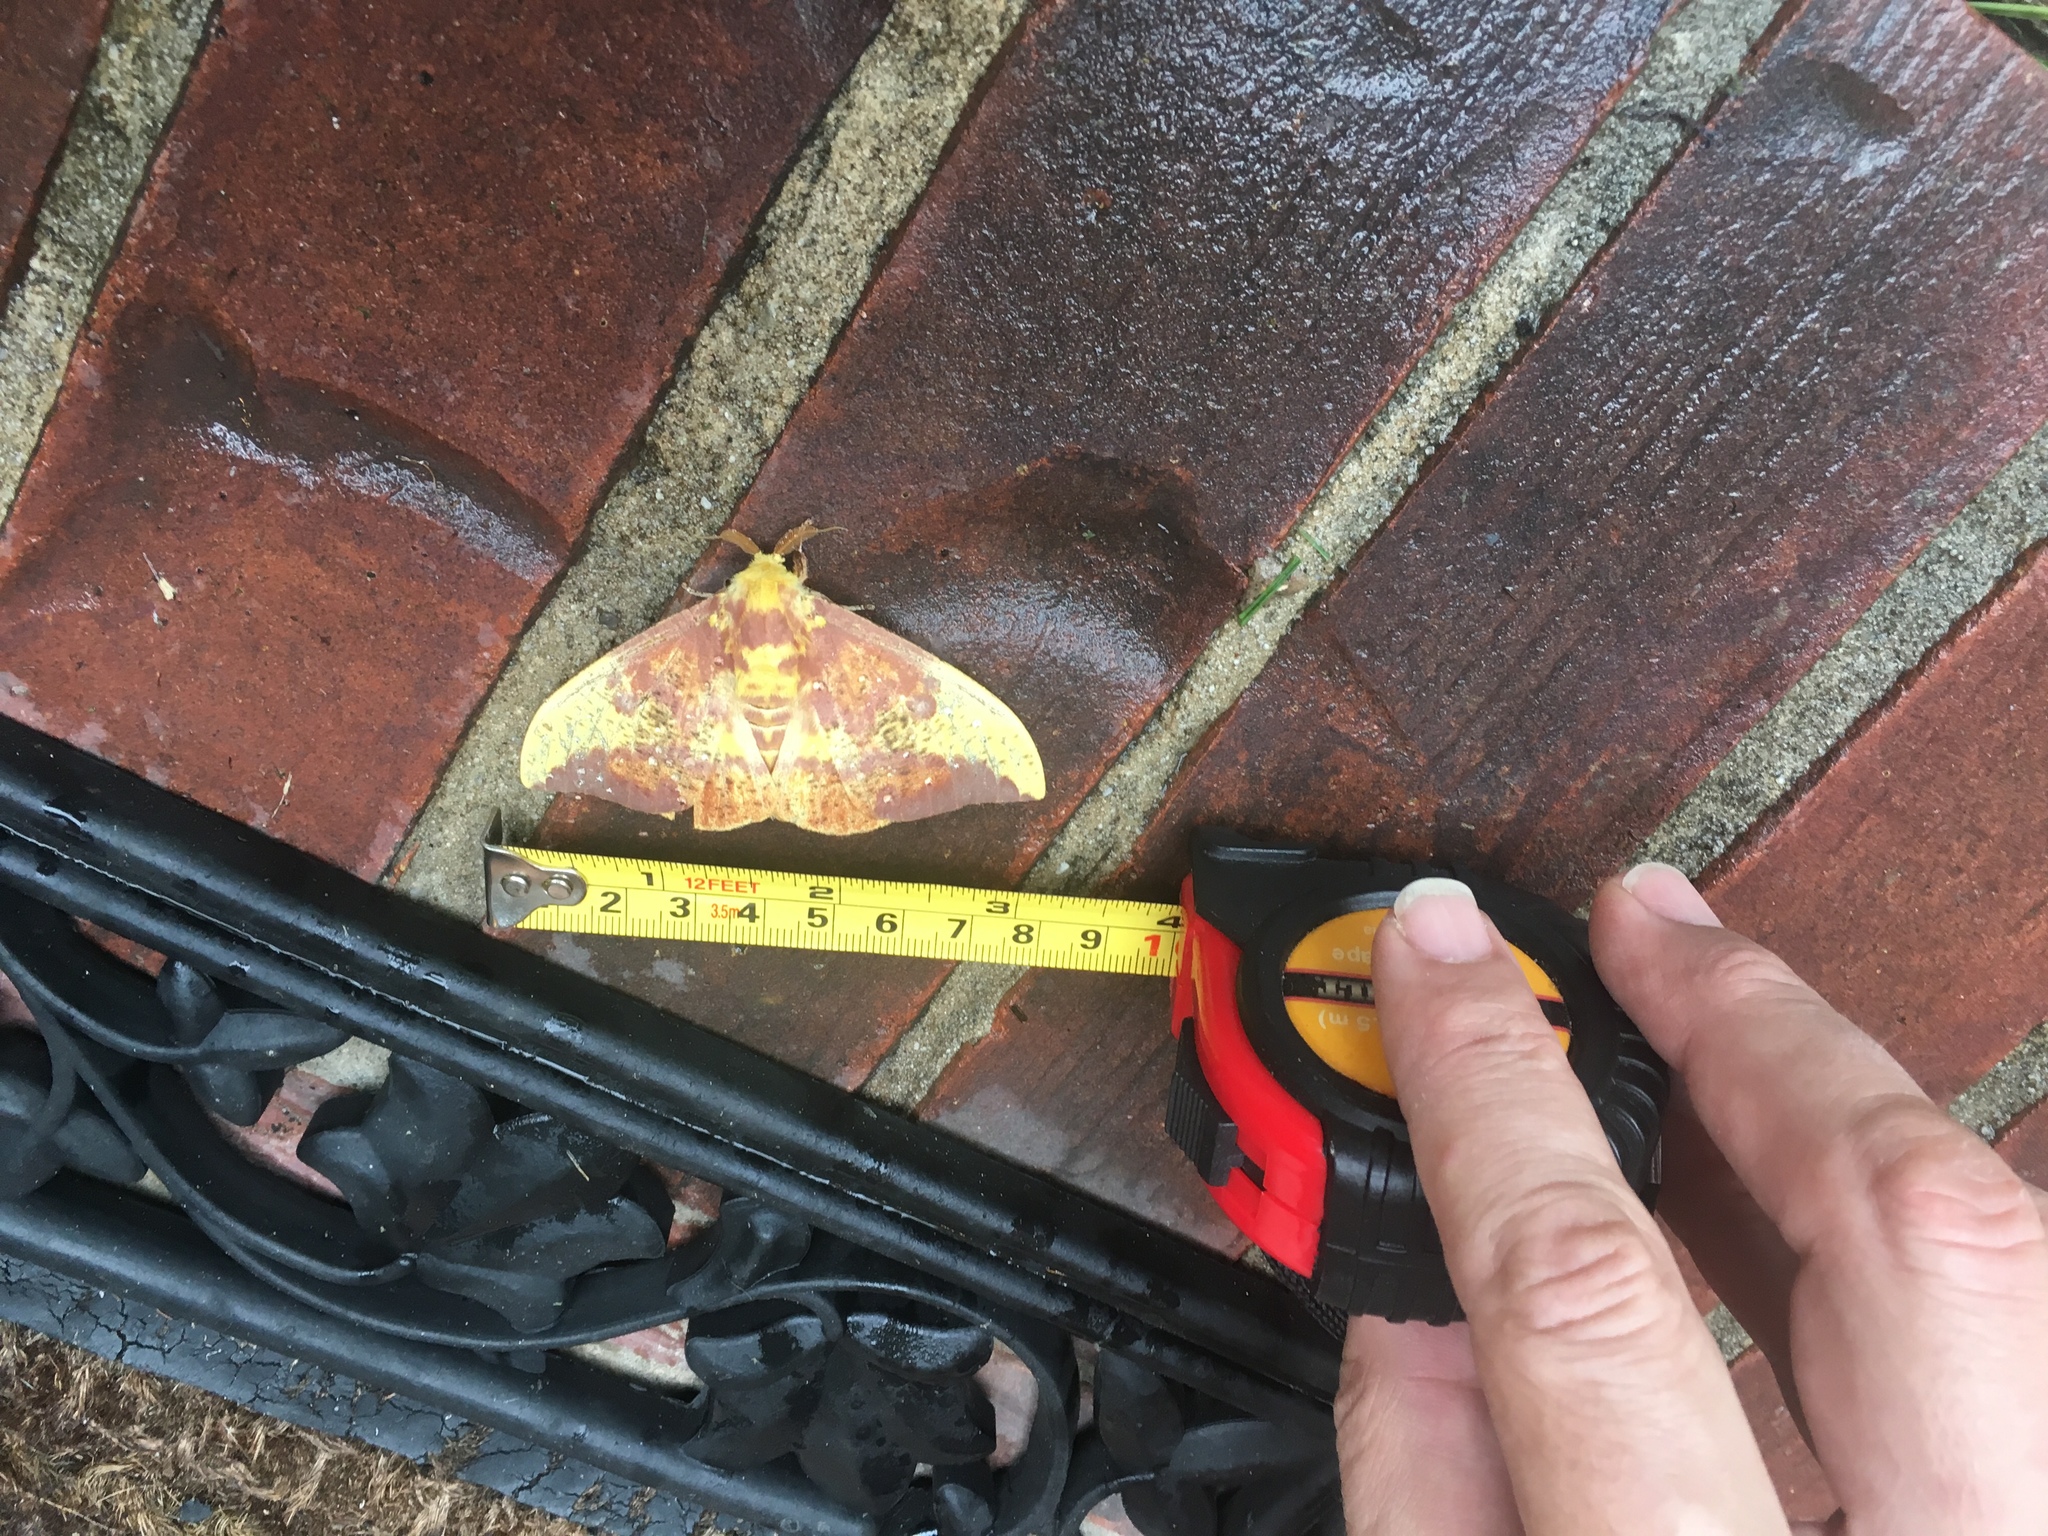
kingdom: Animalia
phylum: Arthropoda
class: Insecta
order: Lepidoptera
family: Saturniidae
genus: Eacles
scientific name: Eacles imperialis
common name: Imperial moth
